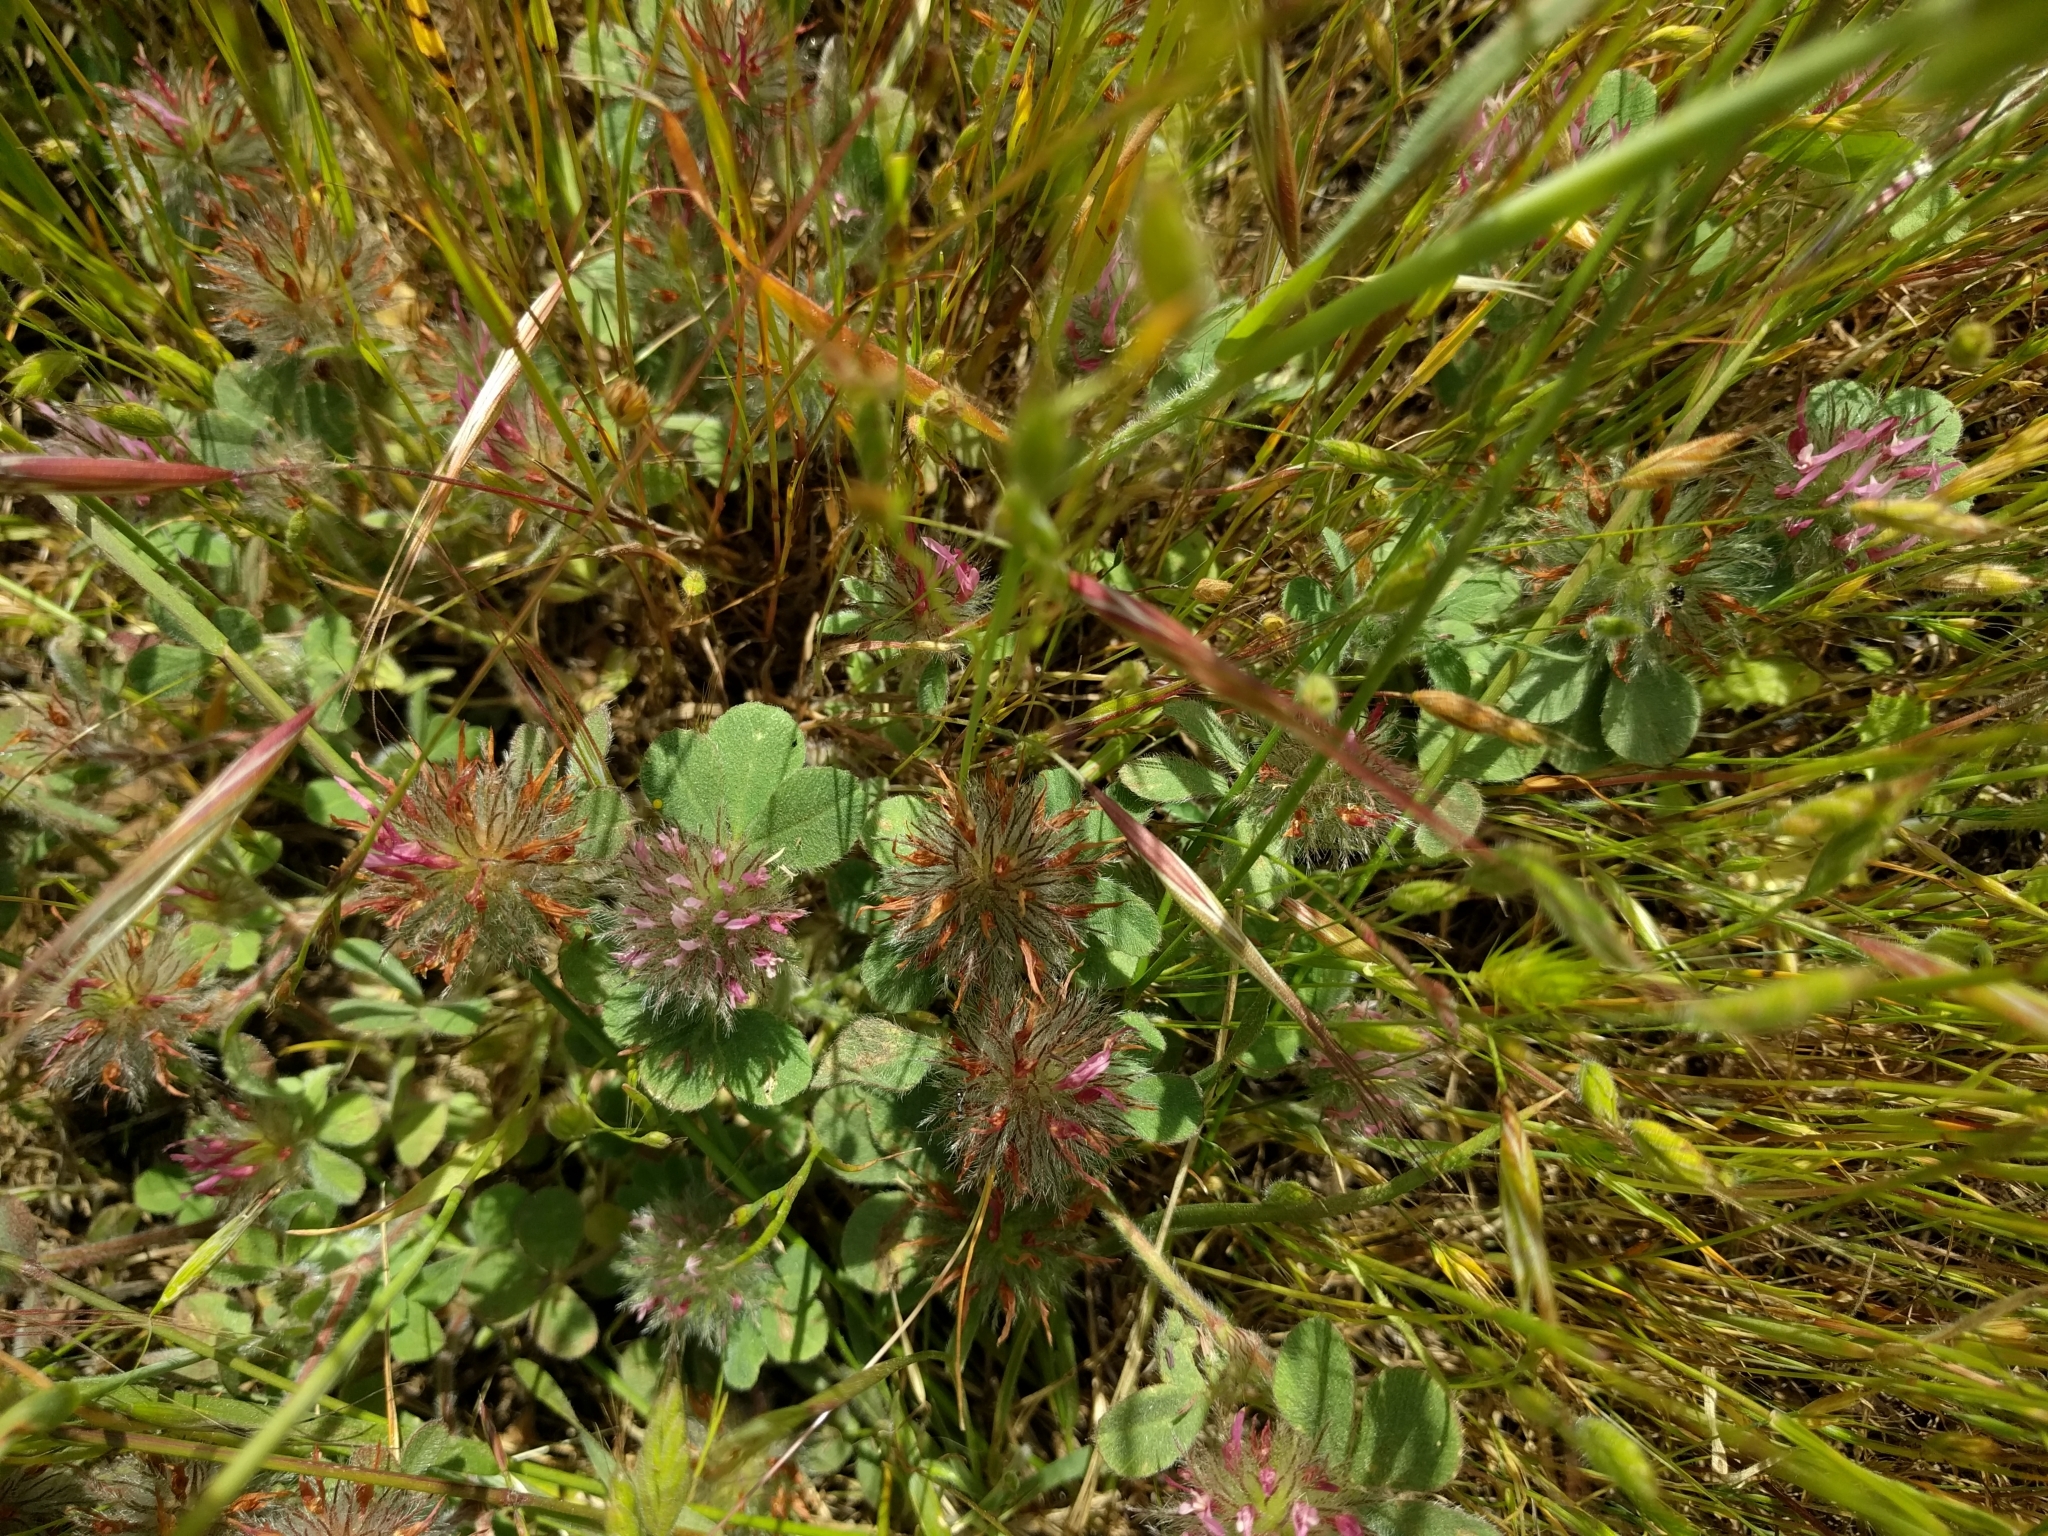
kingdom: Plantae
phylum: Tracheophyta
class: Magnoliopsida
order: Fabales
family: Fabaceae
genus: Trifolium
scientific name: Trifolium hirtum
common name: Rose clover
